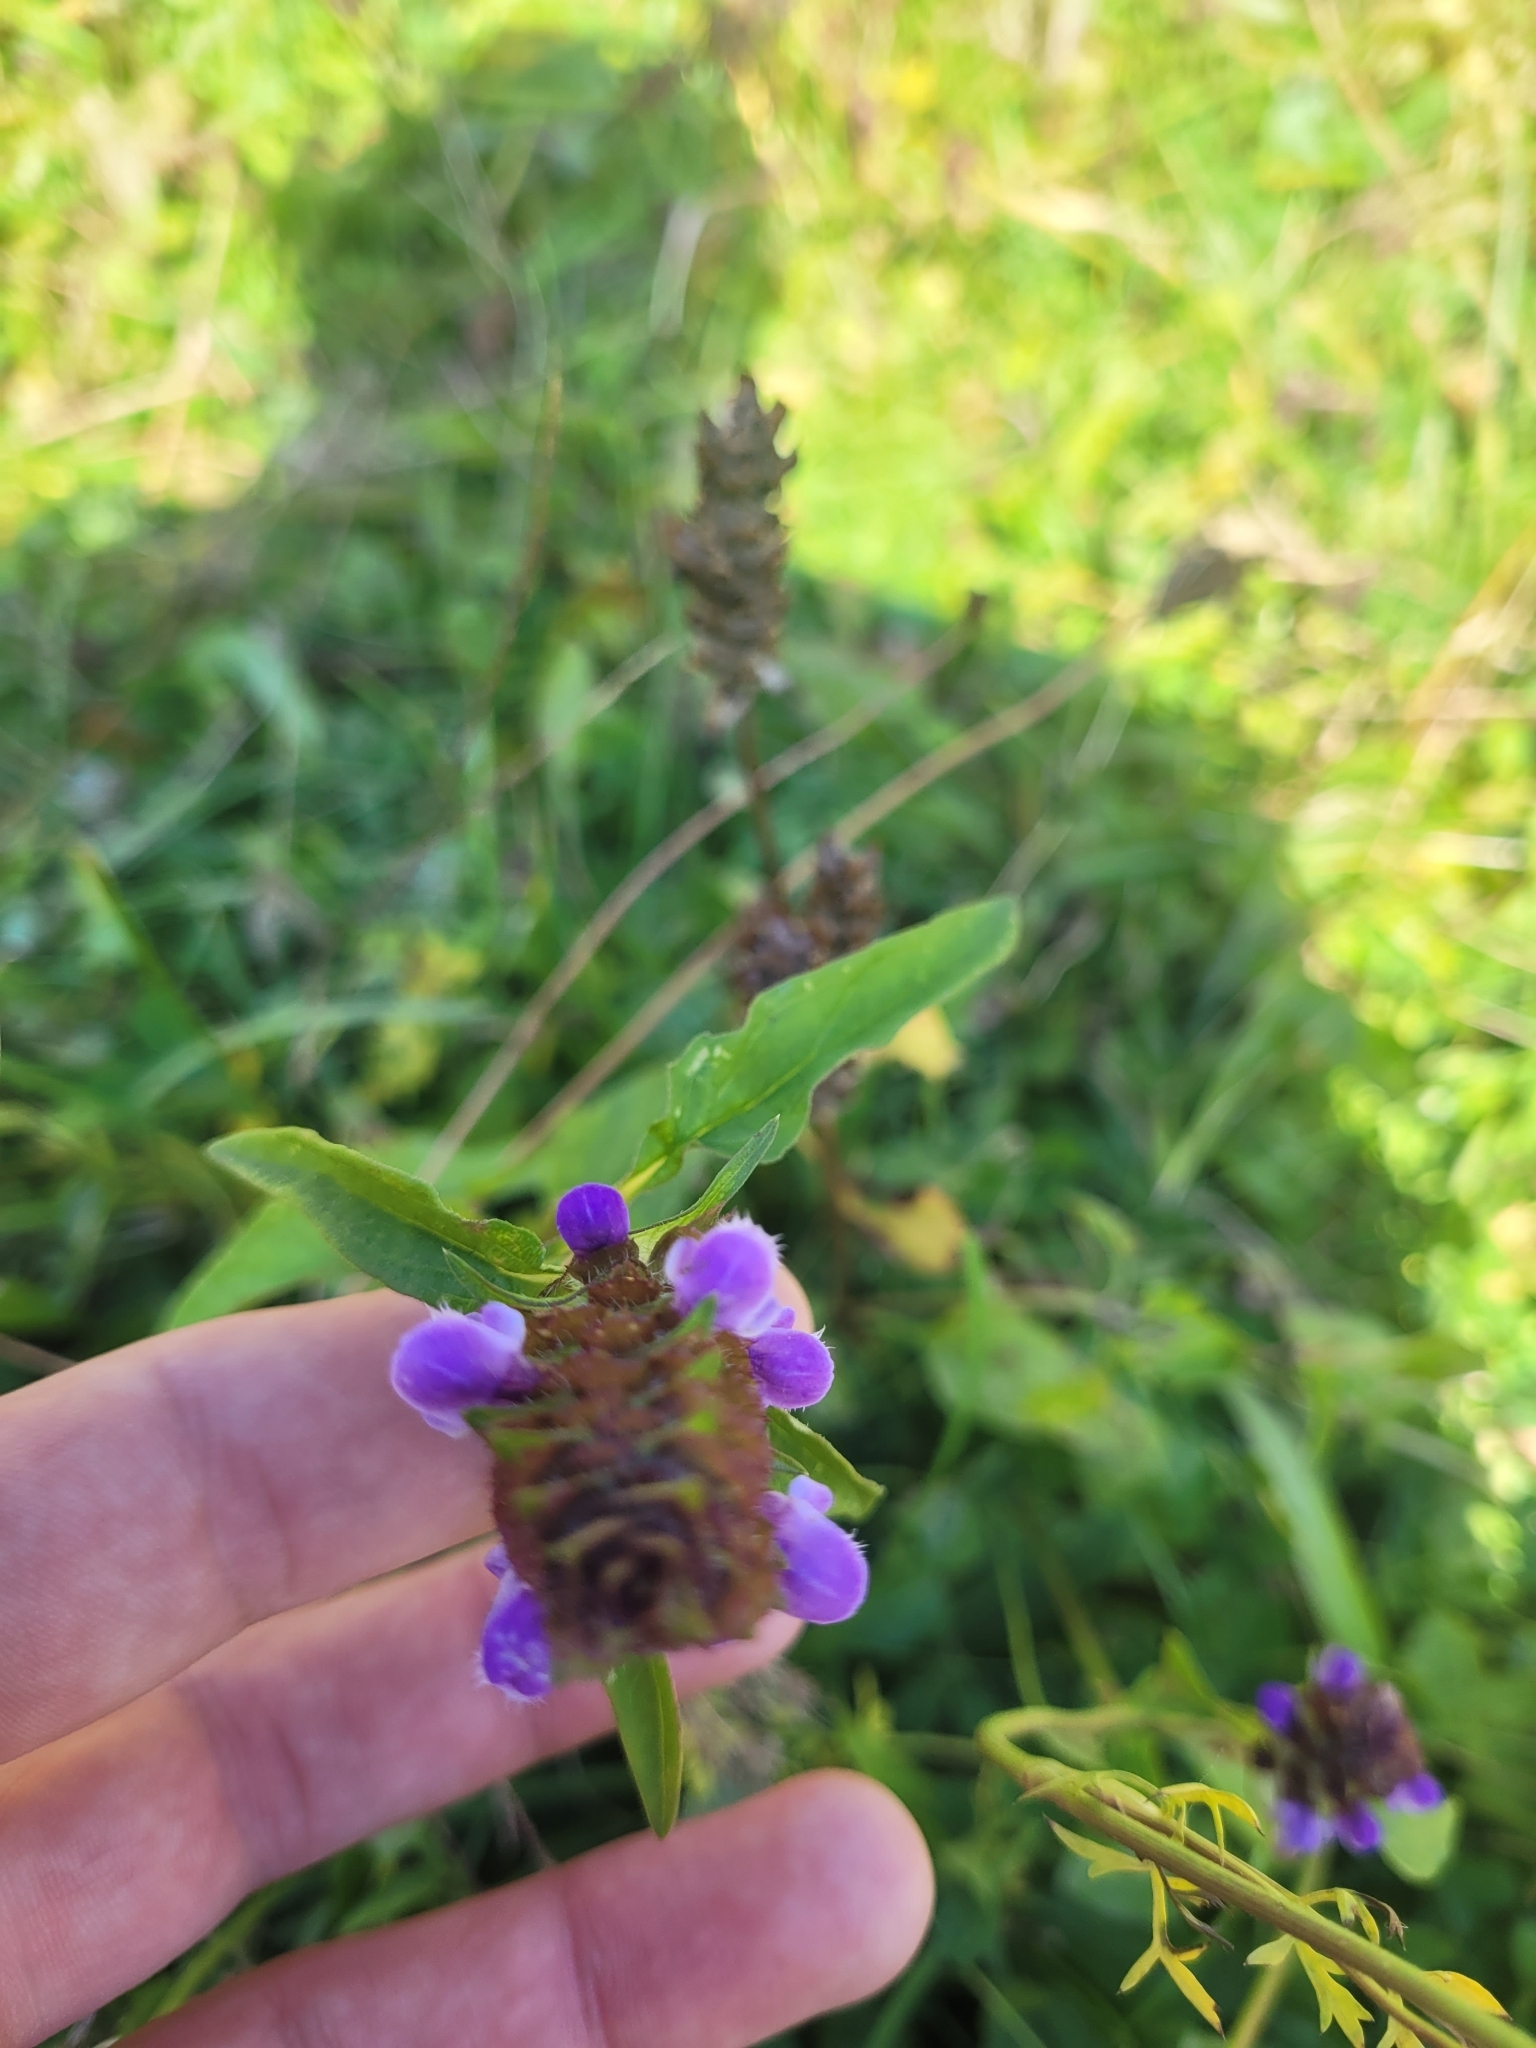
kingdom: Plantae
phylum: Tracheophyta
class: Magnoliopsida
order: Lamiales
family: Lamiaceae
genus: Prunella
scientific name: Prunella vulgaris
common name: Heal-all
